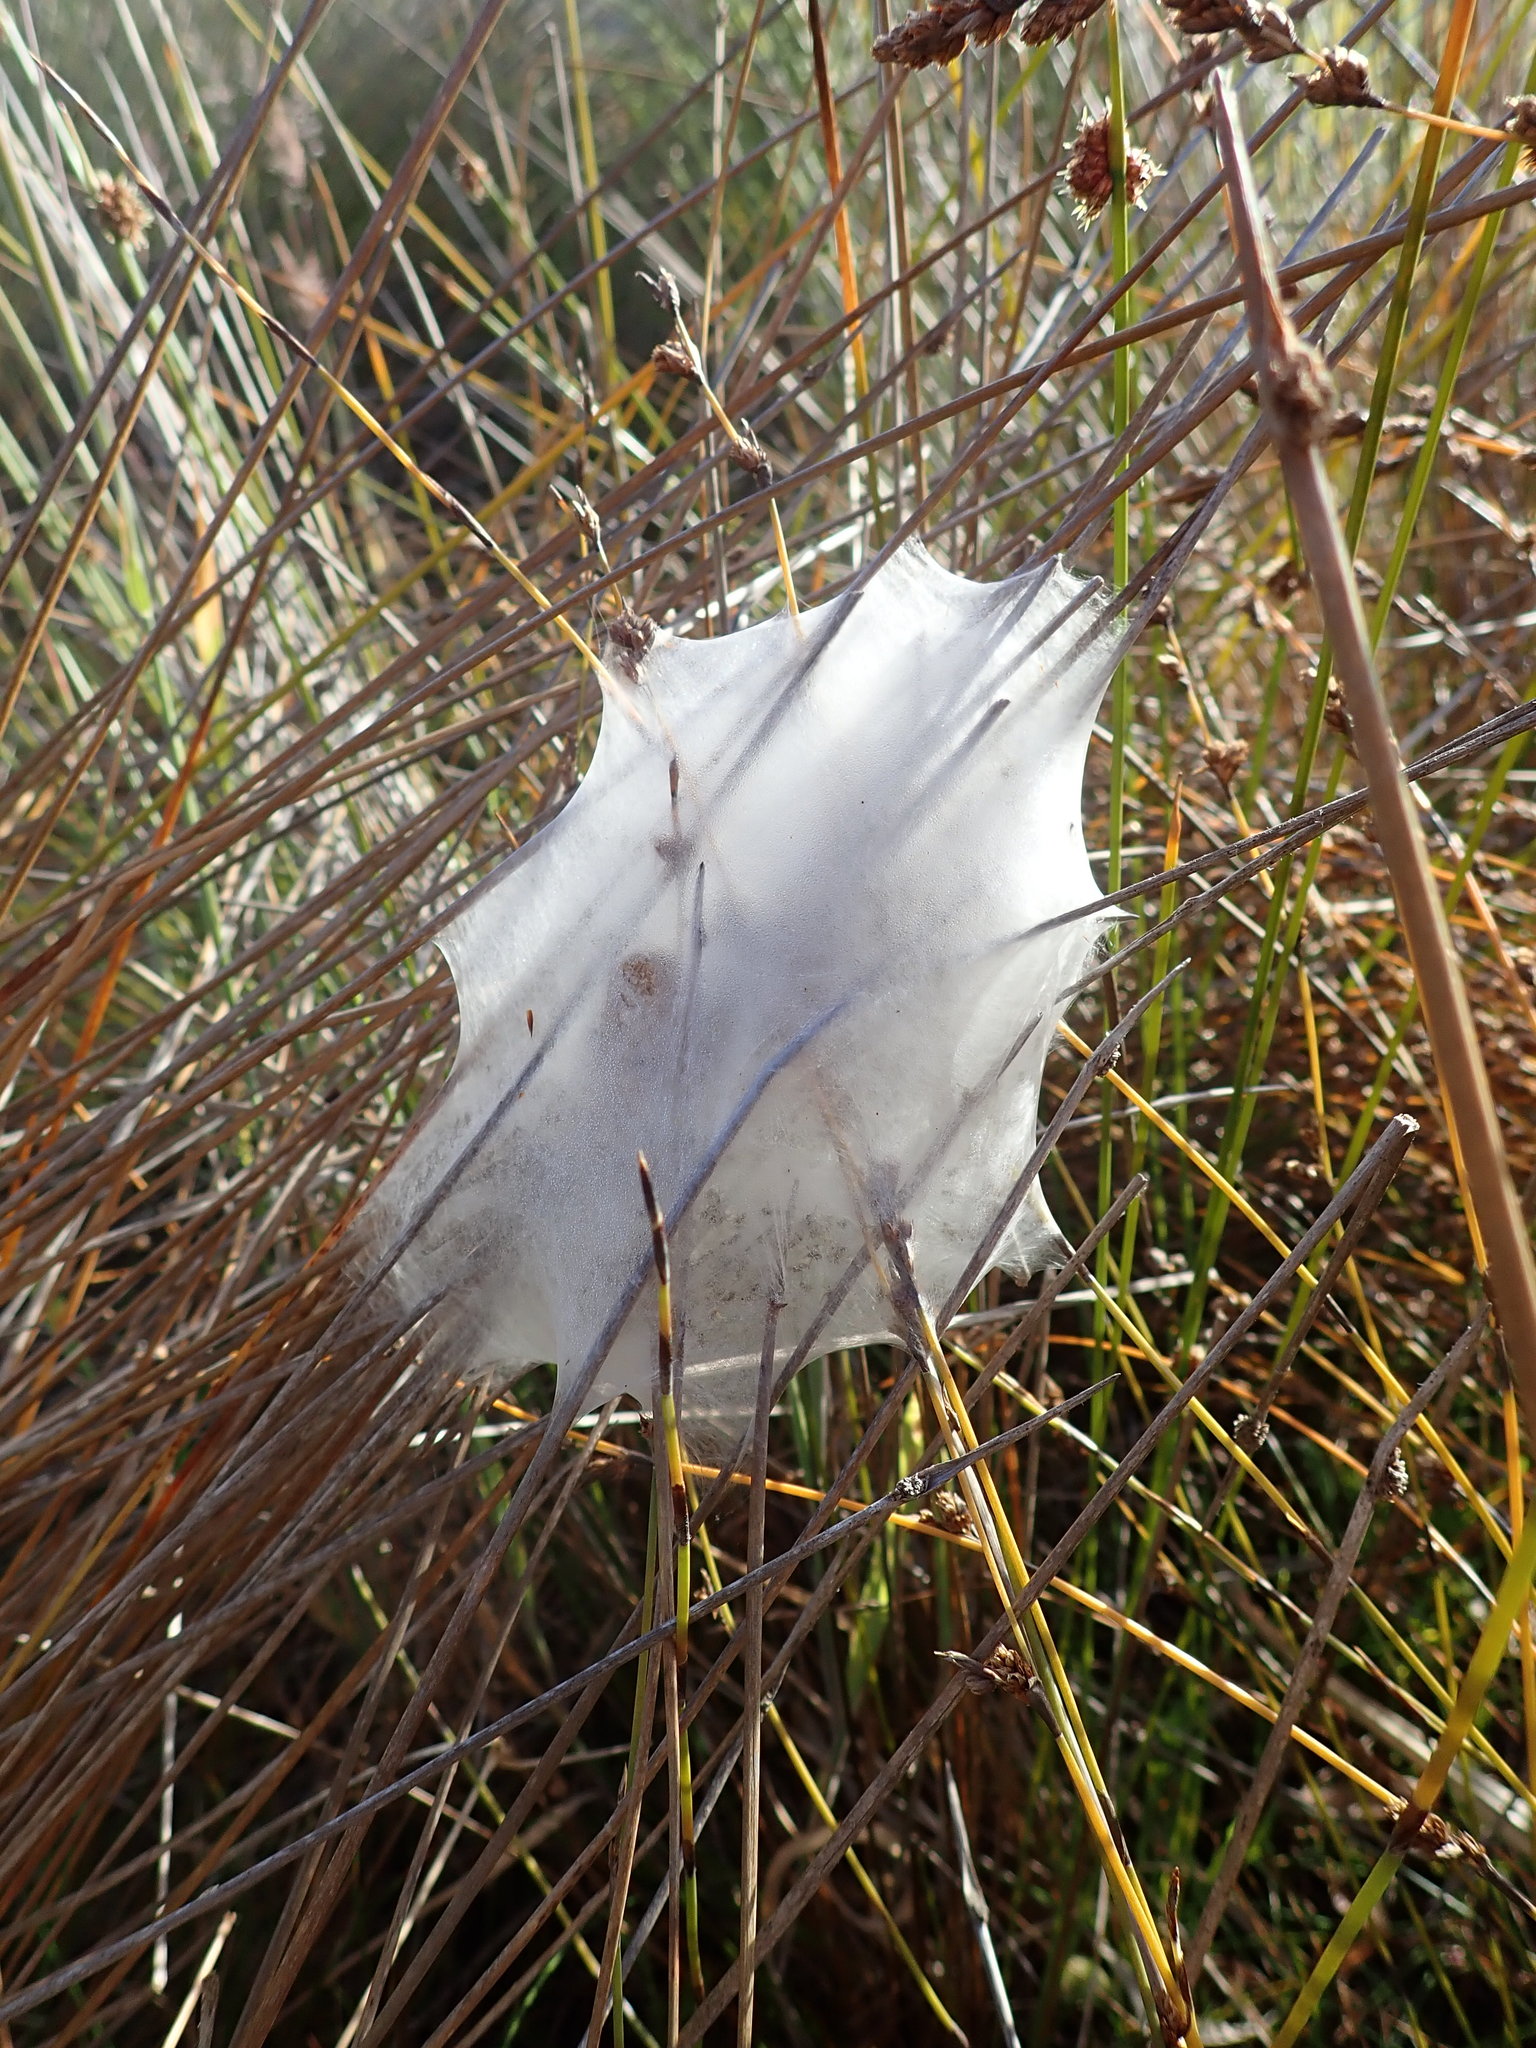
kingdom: Animalia
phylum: Arthropoda
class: Arachnida
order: Araneae
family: Pisauridae
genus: Dolomedes
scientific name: Dolomedes minor
